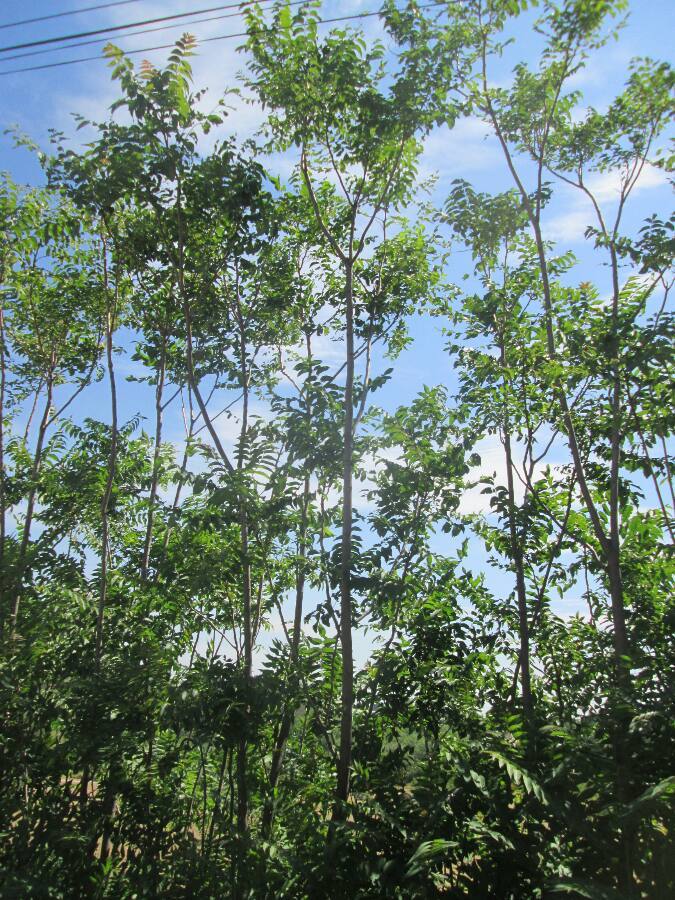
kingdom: Plantae
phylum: Tracheophyta
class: Magnoliopsida
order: Sapindales
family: Simaroubaceae
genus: Ailanthus
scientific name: Ailanthus altissima
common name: Tree-of-heaven
